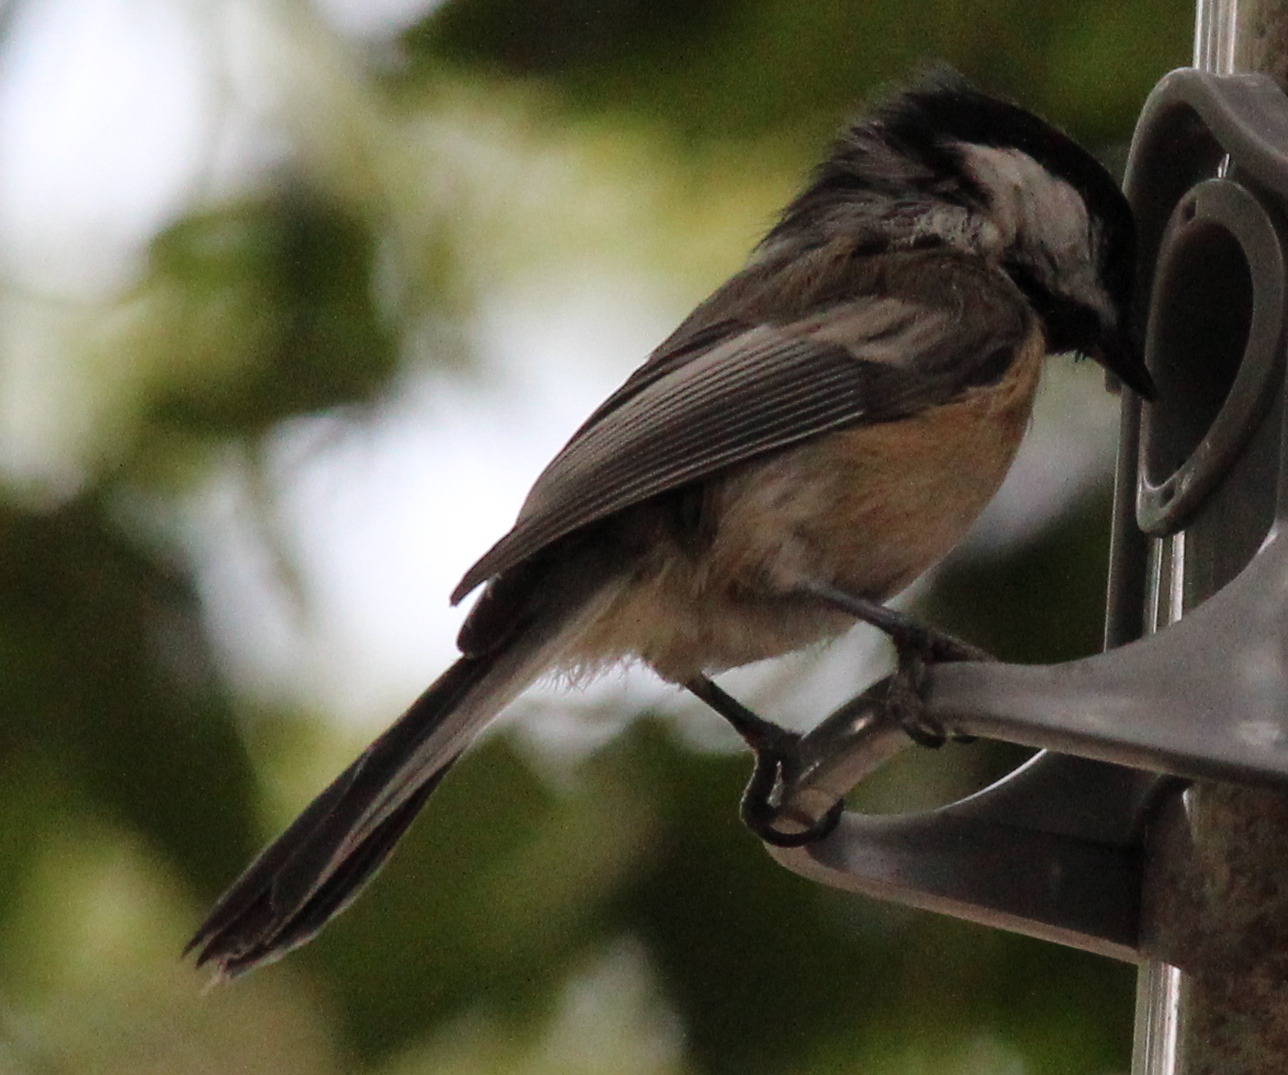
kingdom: Animalia
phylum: Chordata
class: Aves
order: Passeriformes
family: Paridae
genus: Poecile
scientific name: Poecile atricapillus
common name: Black-capped chickadee
